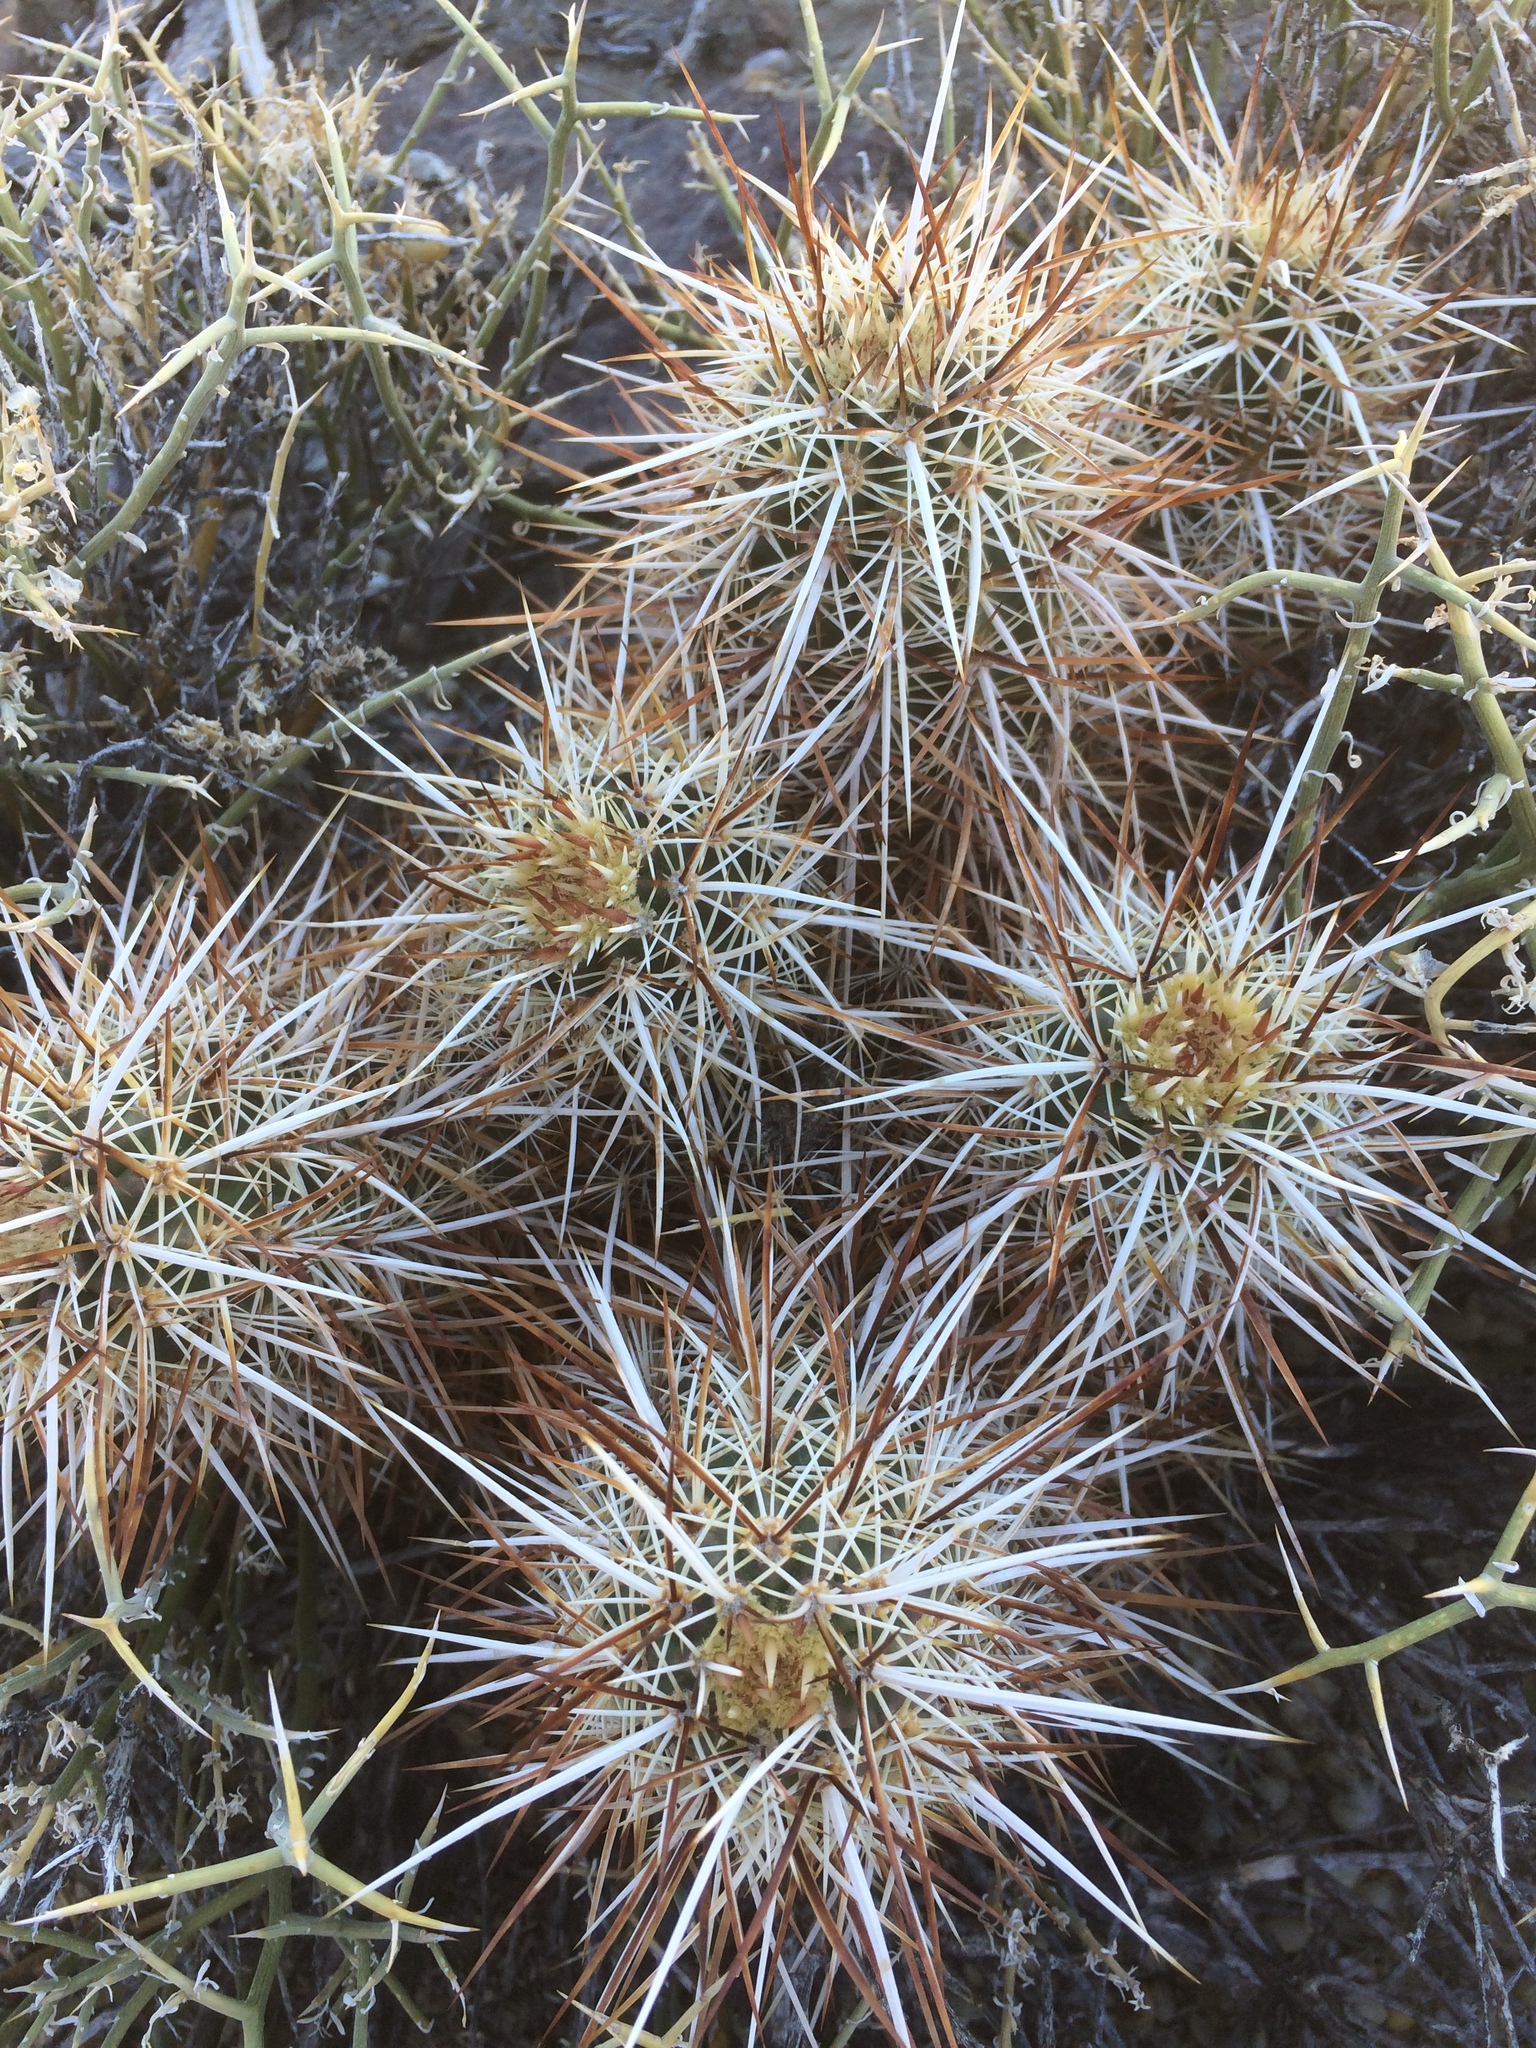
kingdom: Plantae
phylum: Tracheophyta
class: Magnoliopsida
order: Caryophyllales
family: Cactaceae
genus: Echinocereus
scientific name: Echinocereus engelmannii
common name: Engelmann's hedgehog cactus
